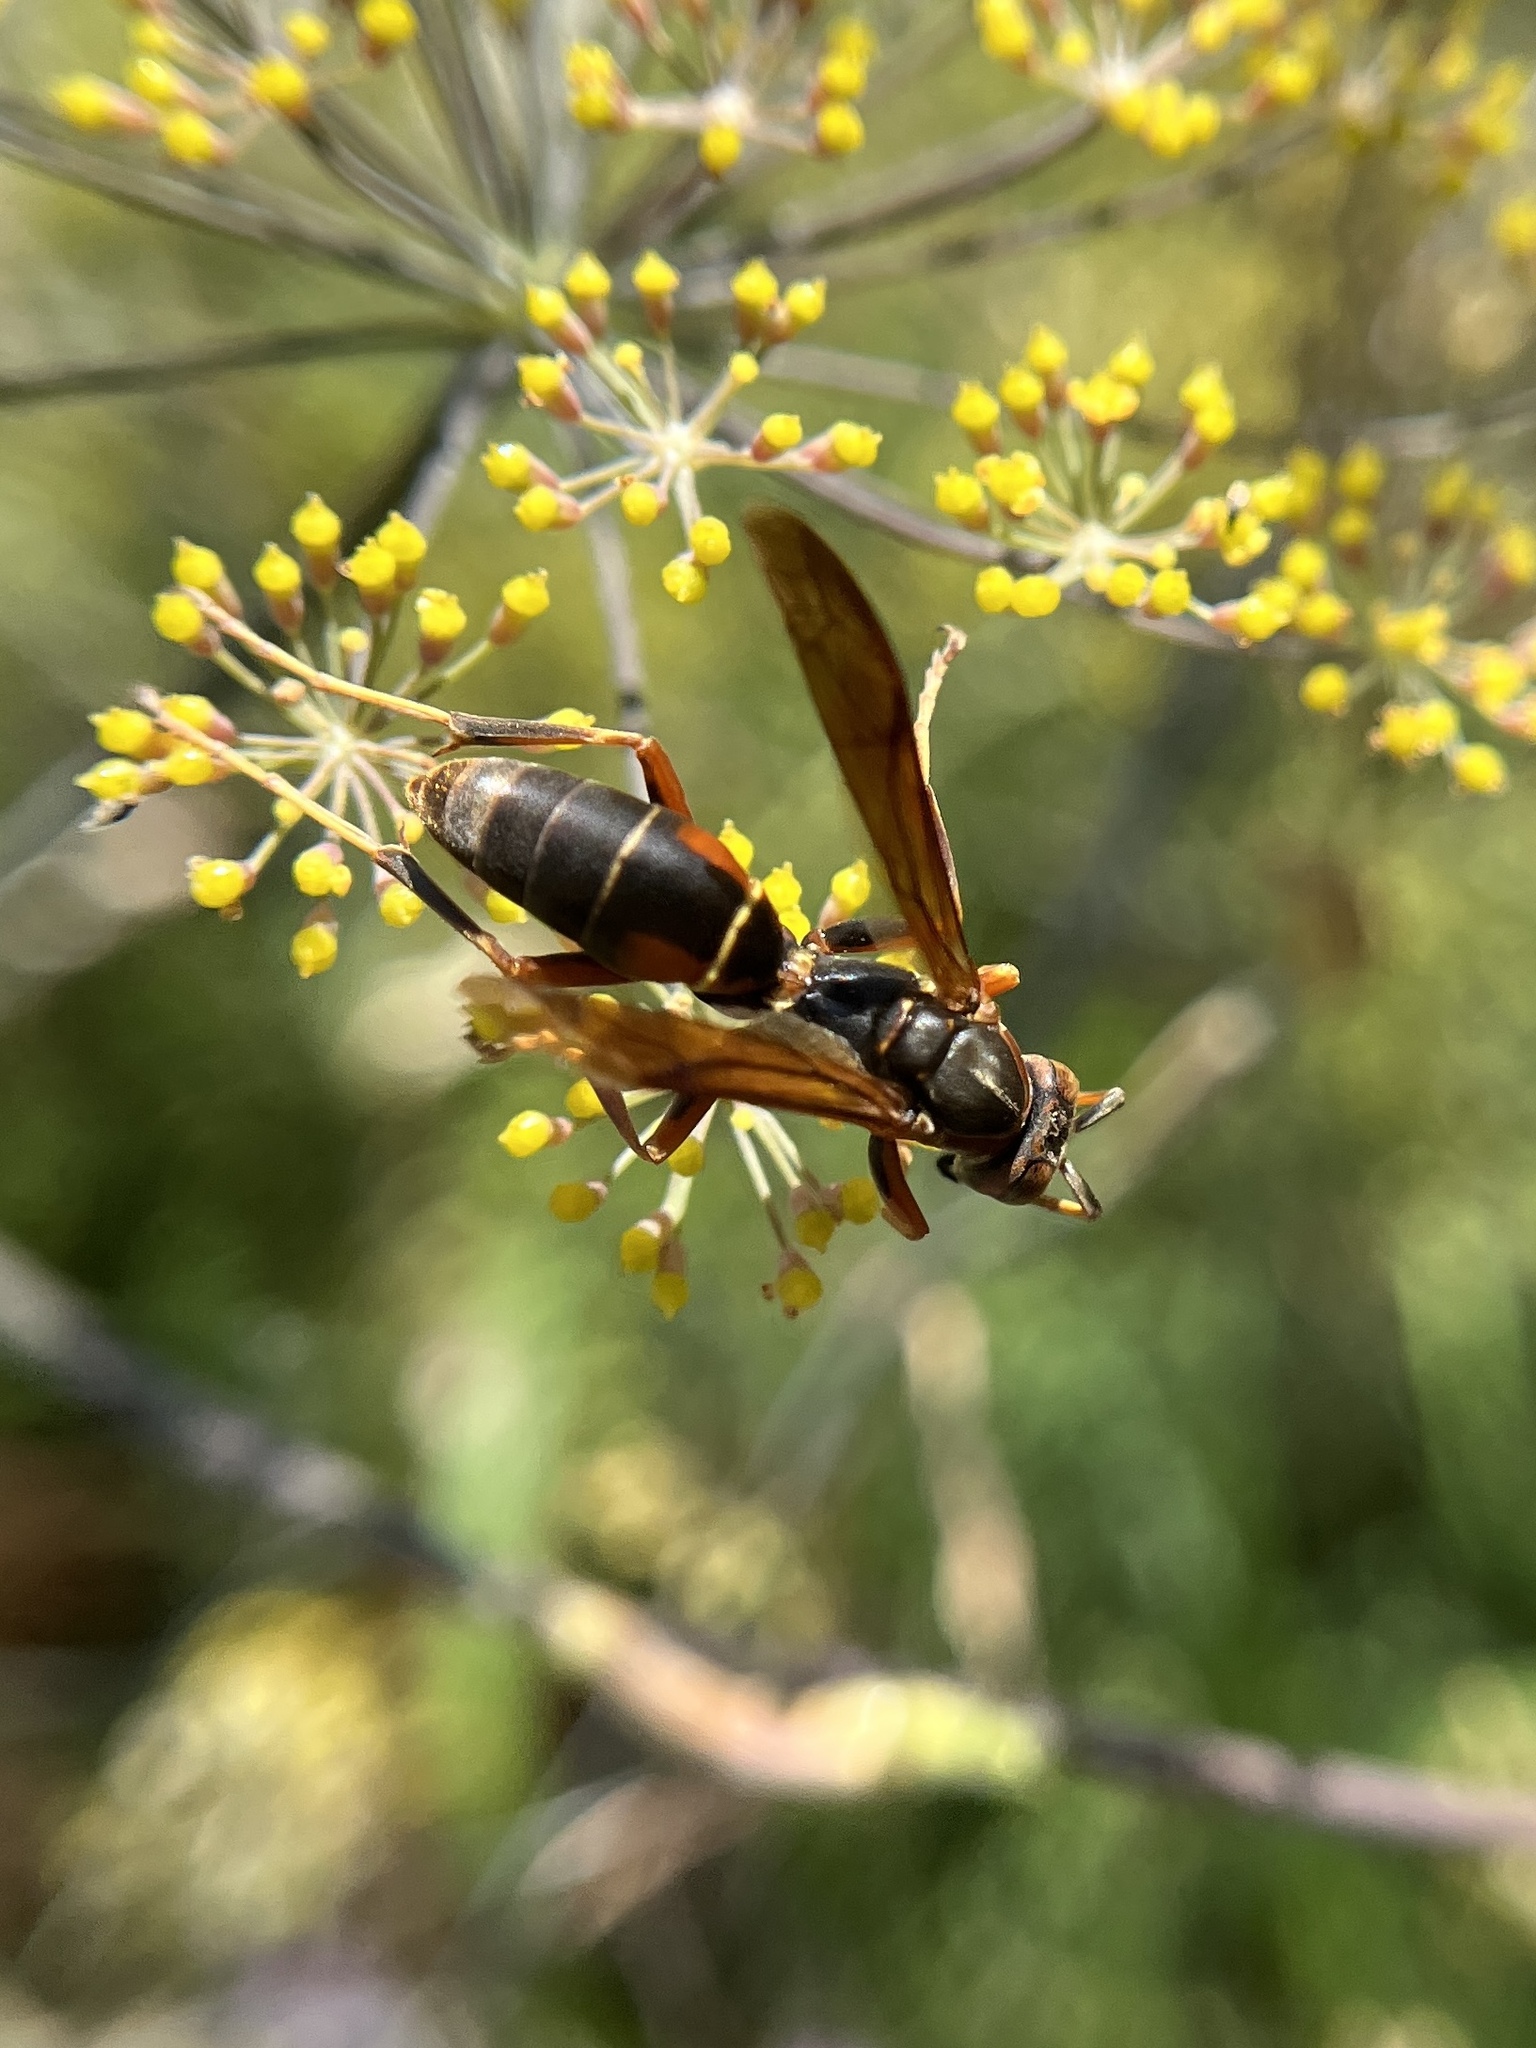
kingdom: Animalia
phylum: Arthropoda
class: Insecta
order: Hymenoptera
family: Eumenidae
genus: Polistes
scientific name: Polistes fuscatus
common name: Dark paper wasp
